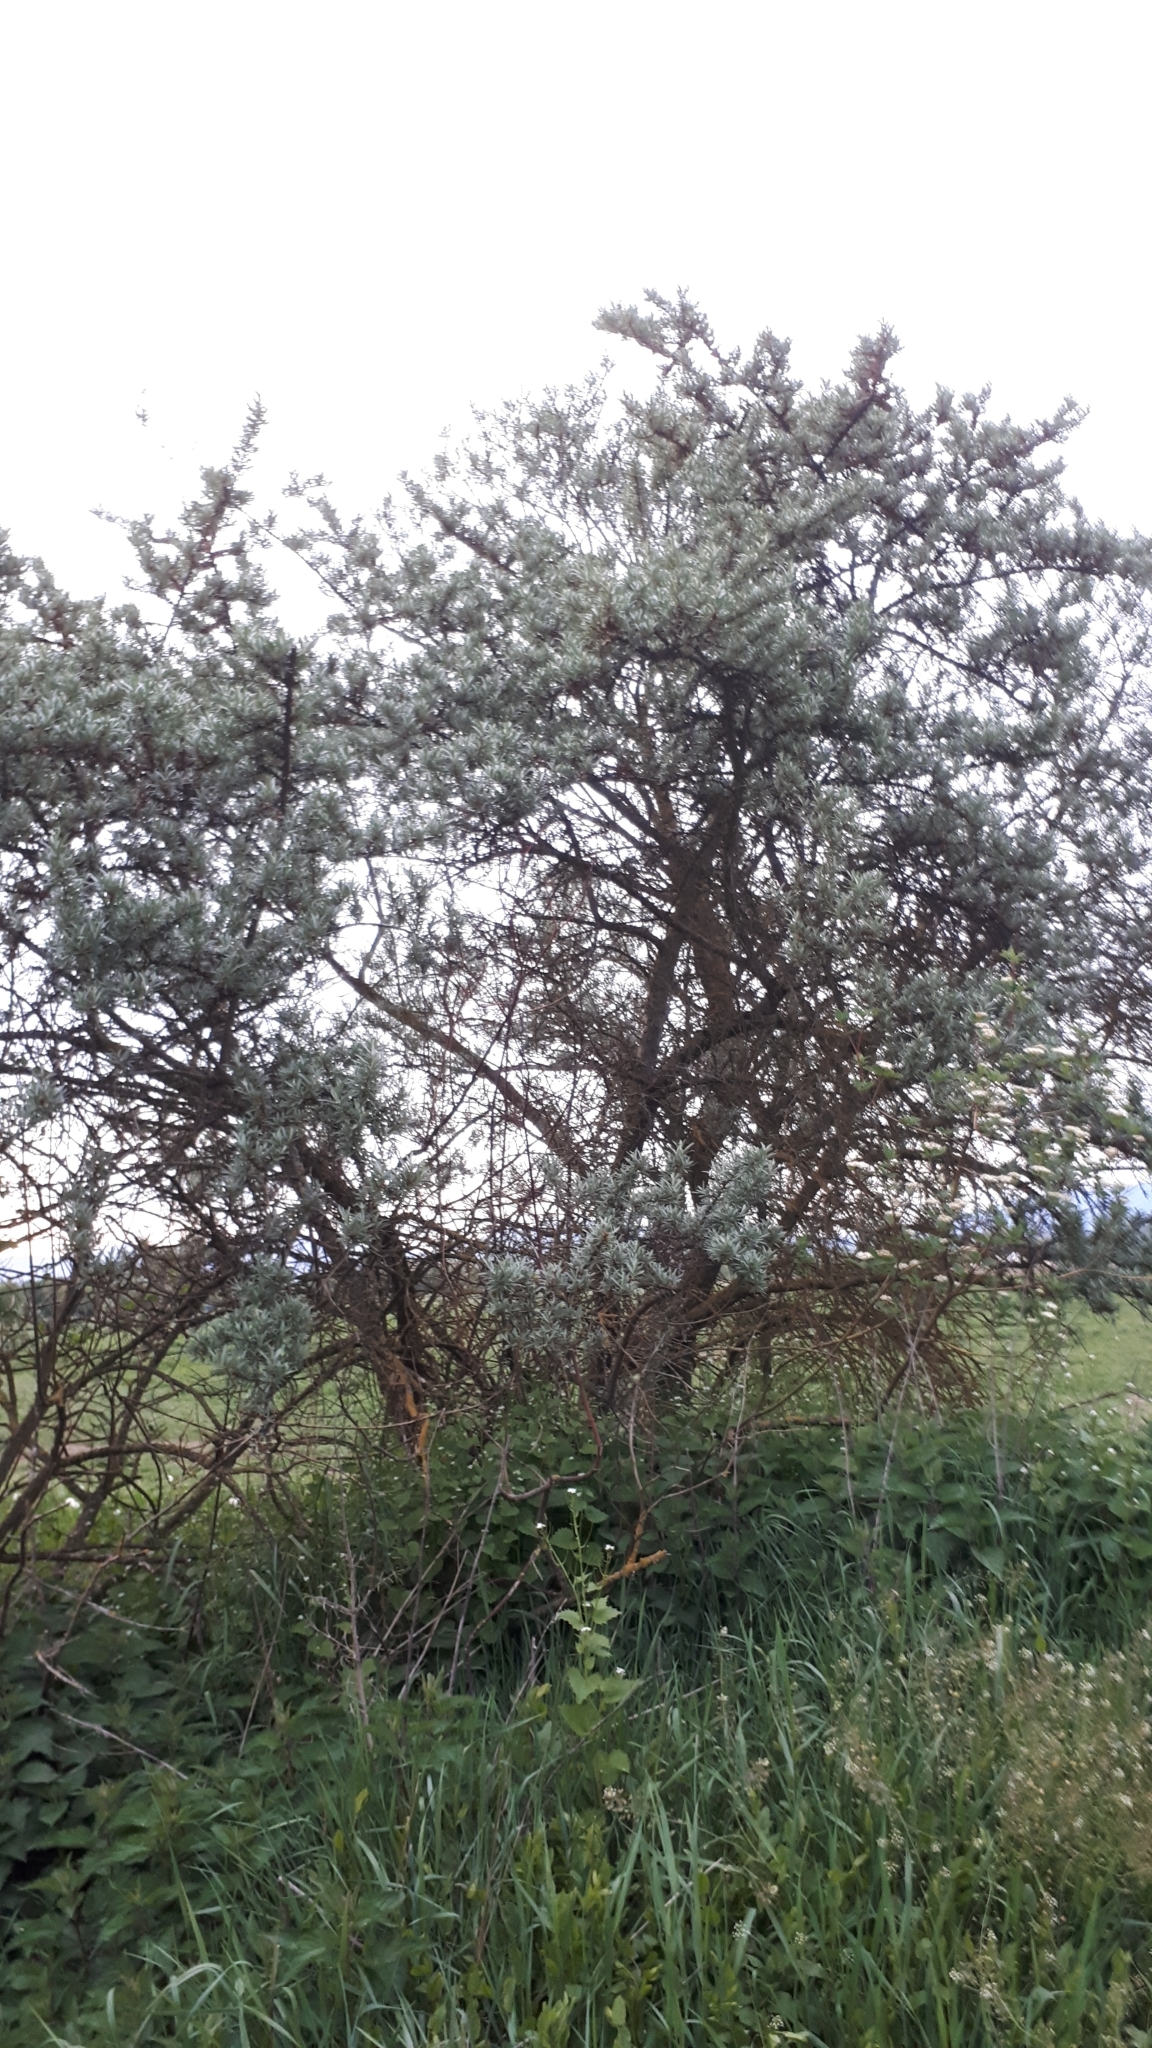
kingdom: Plantae
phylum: Tracheophyta
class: Magnoliopsida
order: Rosales
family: Elaeagnaceae
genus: Hippophae
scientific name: Hippophae rhamnoides
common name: Sea-buckthorn
